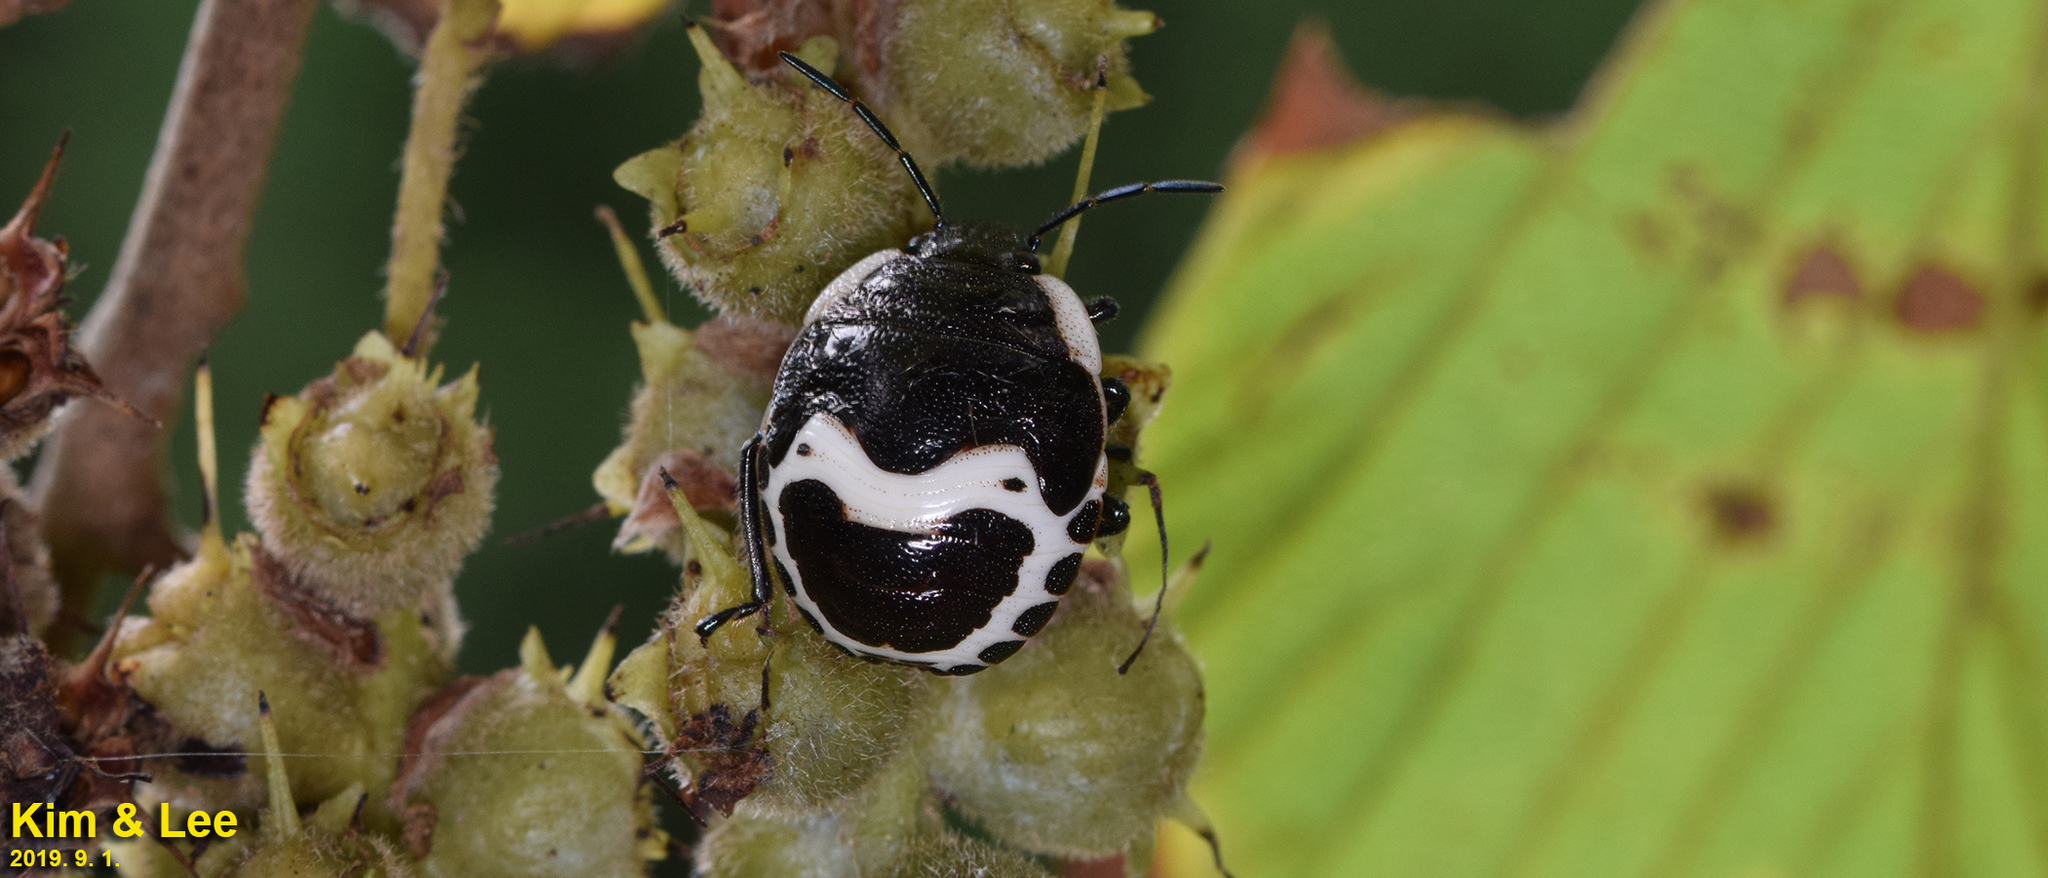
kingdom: Animalia
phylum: Arthropoda
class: Insecta
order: Hemiptera
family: Scutelleridae
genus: Poecilocoris
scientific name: Poecilocoris lewisi
